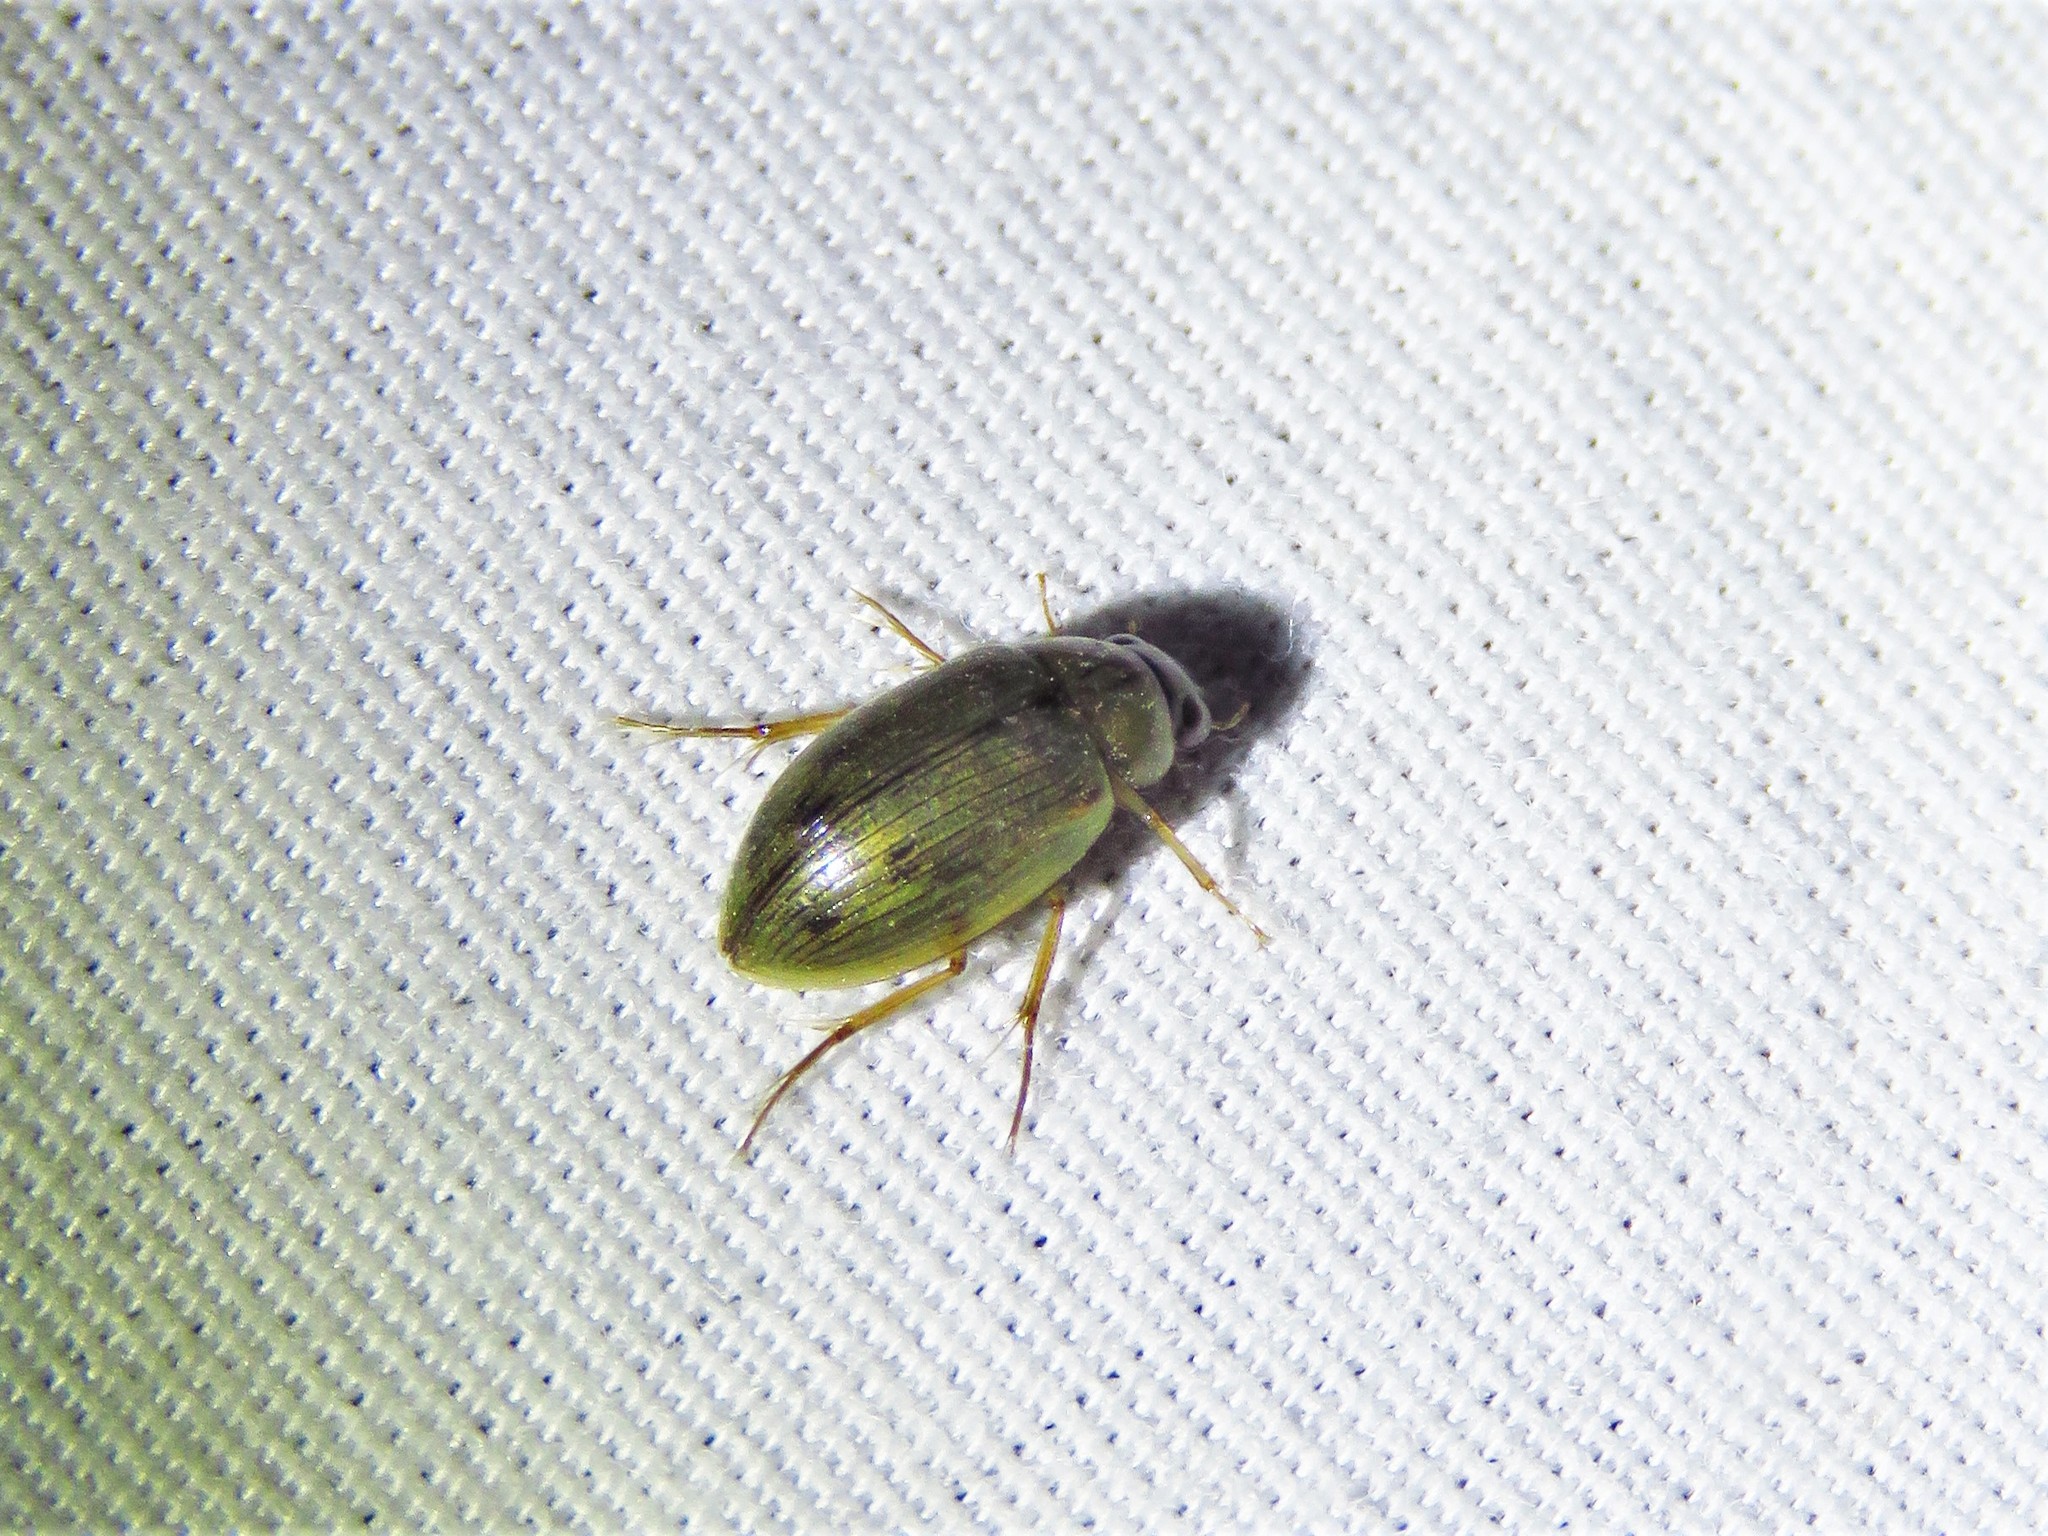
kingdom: Animalia
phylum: Arthropoda
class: Insecta
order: Coleoptera
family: Hydrophilidae
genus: Berosus
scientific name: Berosus
